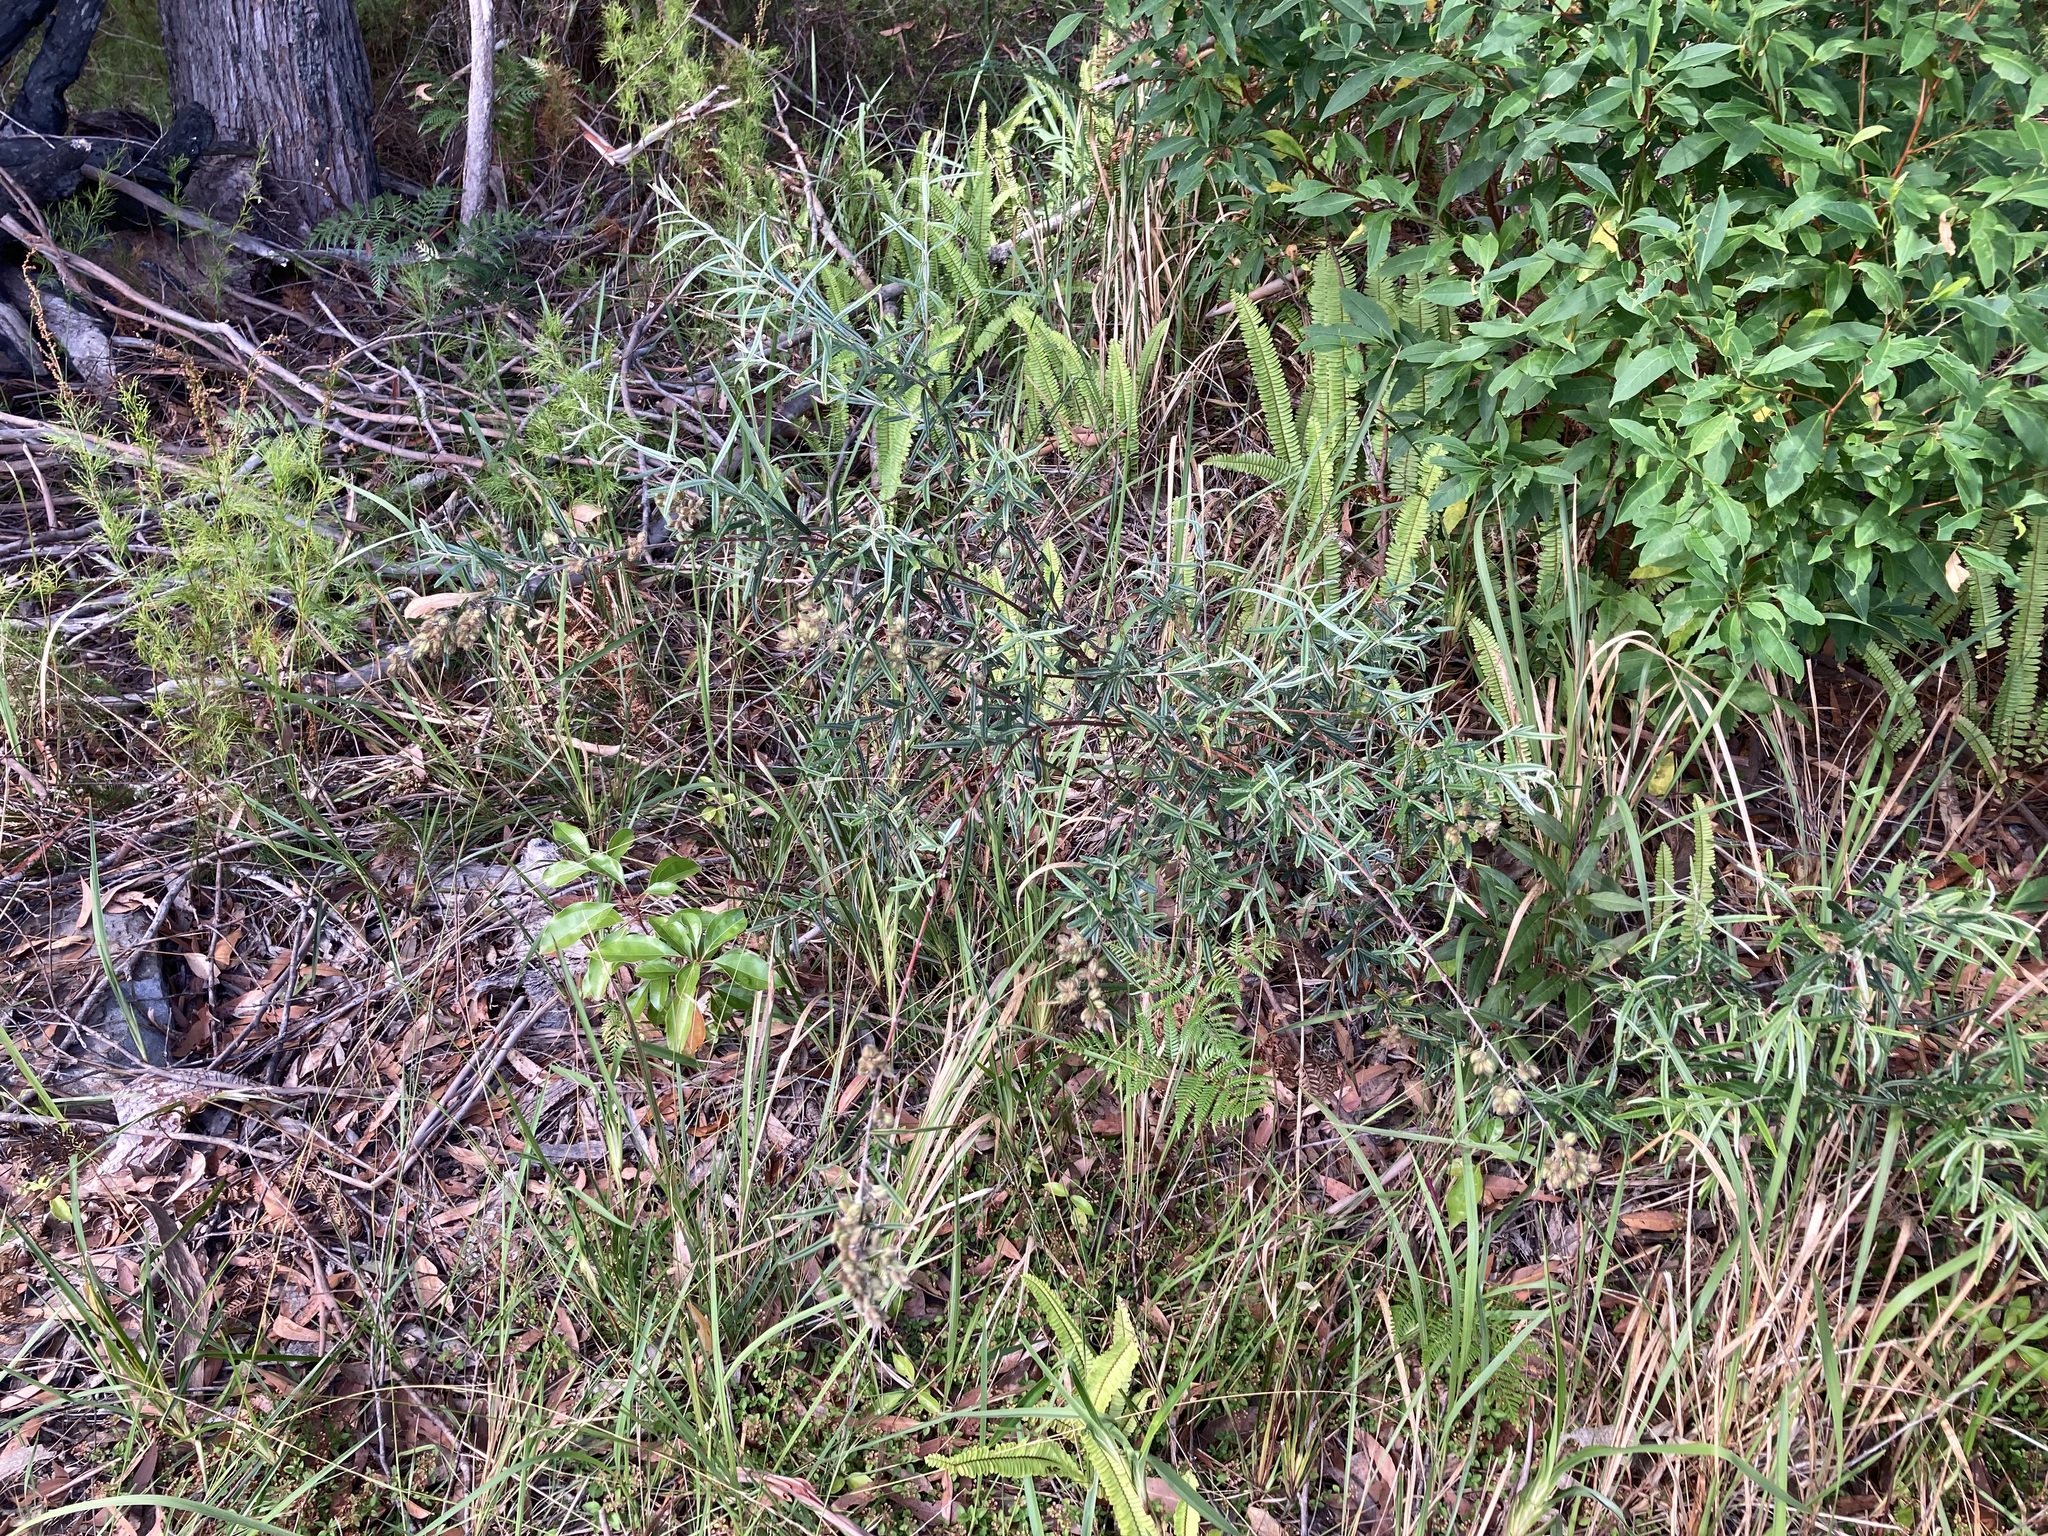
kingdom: Plantae
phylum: Tracheophyta
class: Magnoliopsida
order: Fabales
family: Fabaceae
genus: Oxylobium
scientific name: Oxylobium robustum
